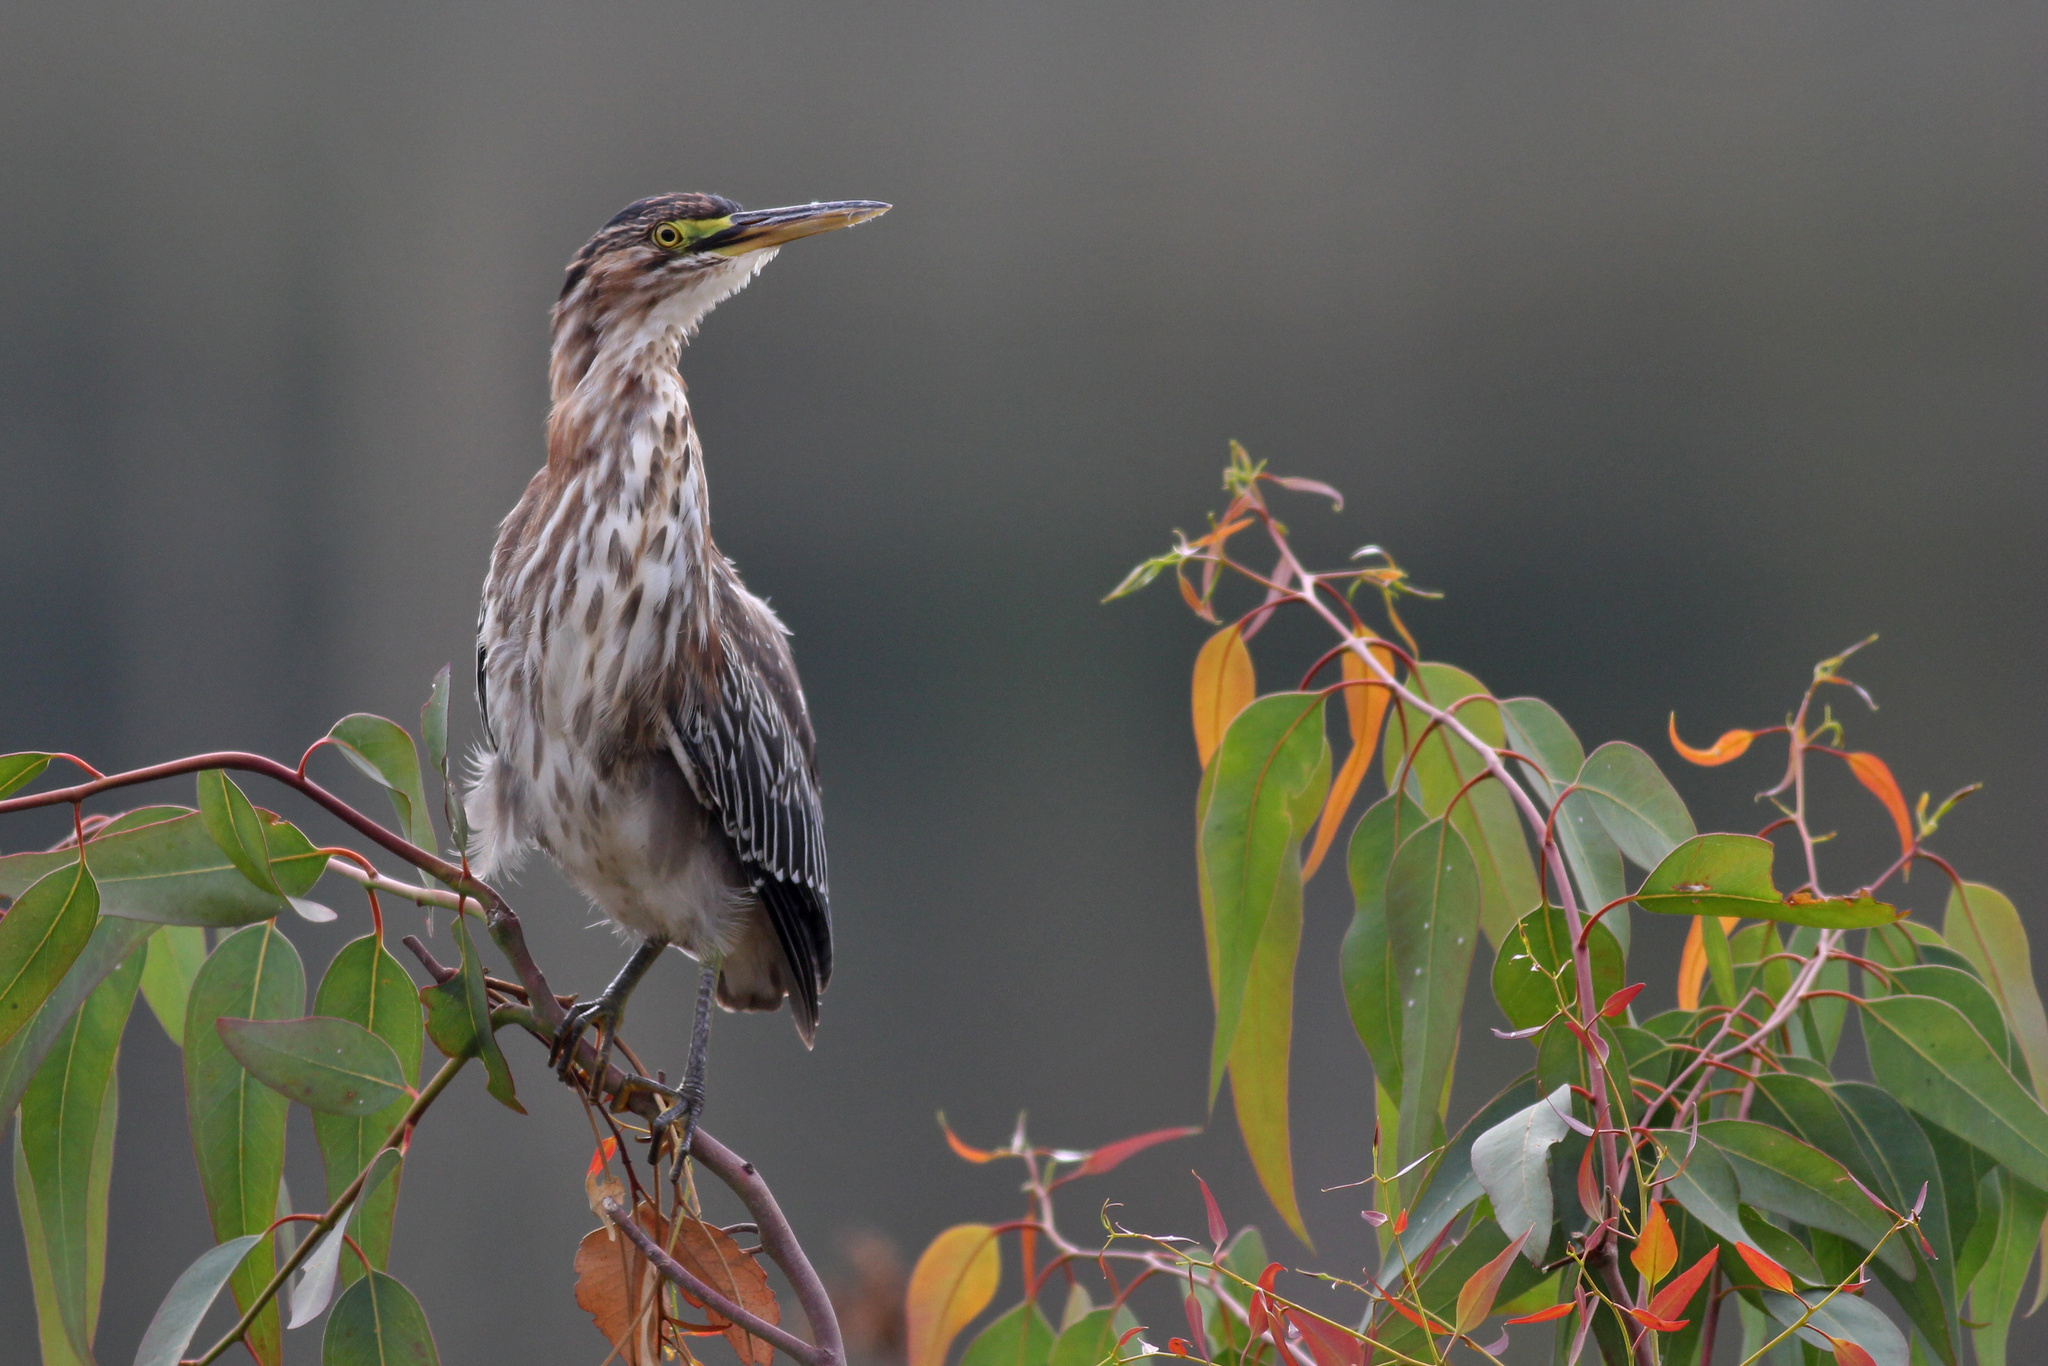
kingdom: Animalia
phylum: Chordata
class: Aves
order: Pelecaniformes
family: Ardeidae
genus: Butorides
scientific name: Butorides virescens
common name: Green heron
